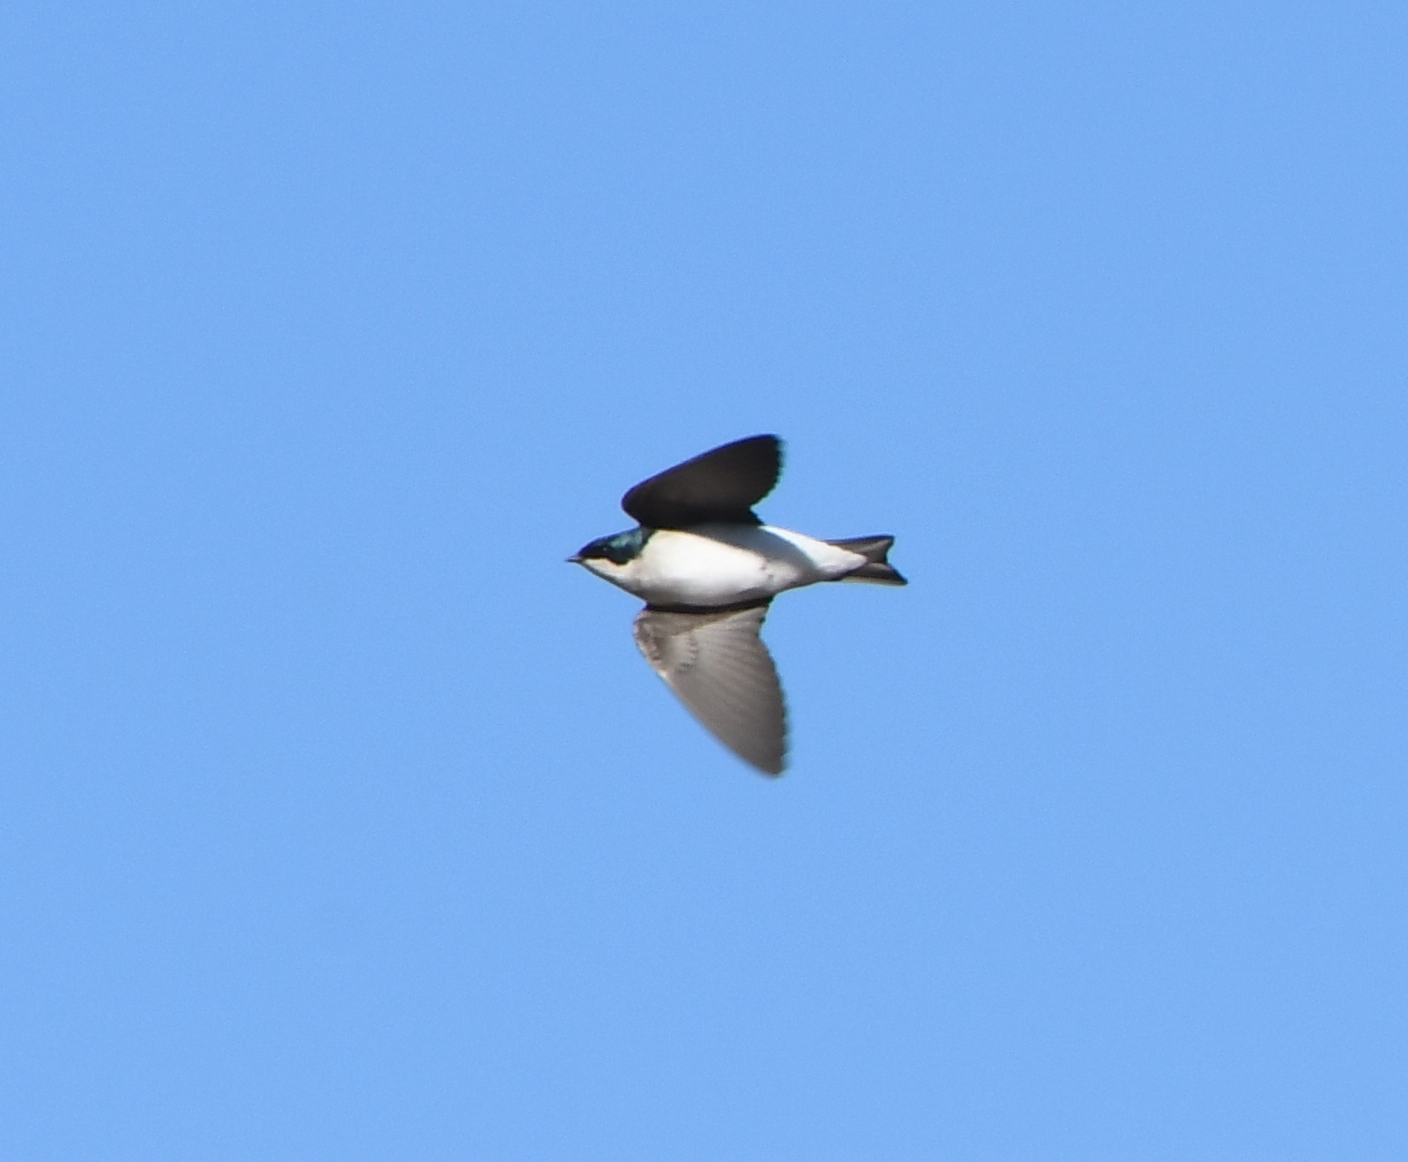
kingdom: Animalia
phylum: Chordata
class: Aves
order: Passeriformes
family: Hirundinidae
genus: Tachycineta
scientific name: Tachycineta bicolor
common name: Tree swallow
